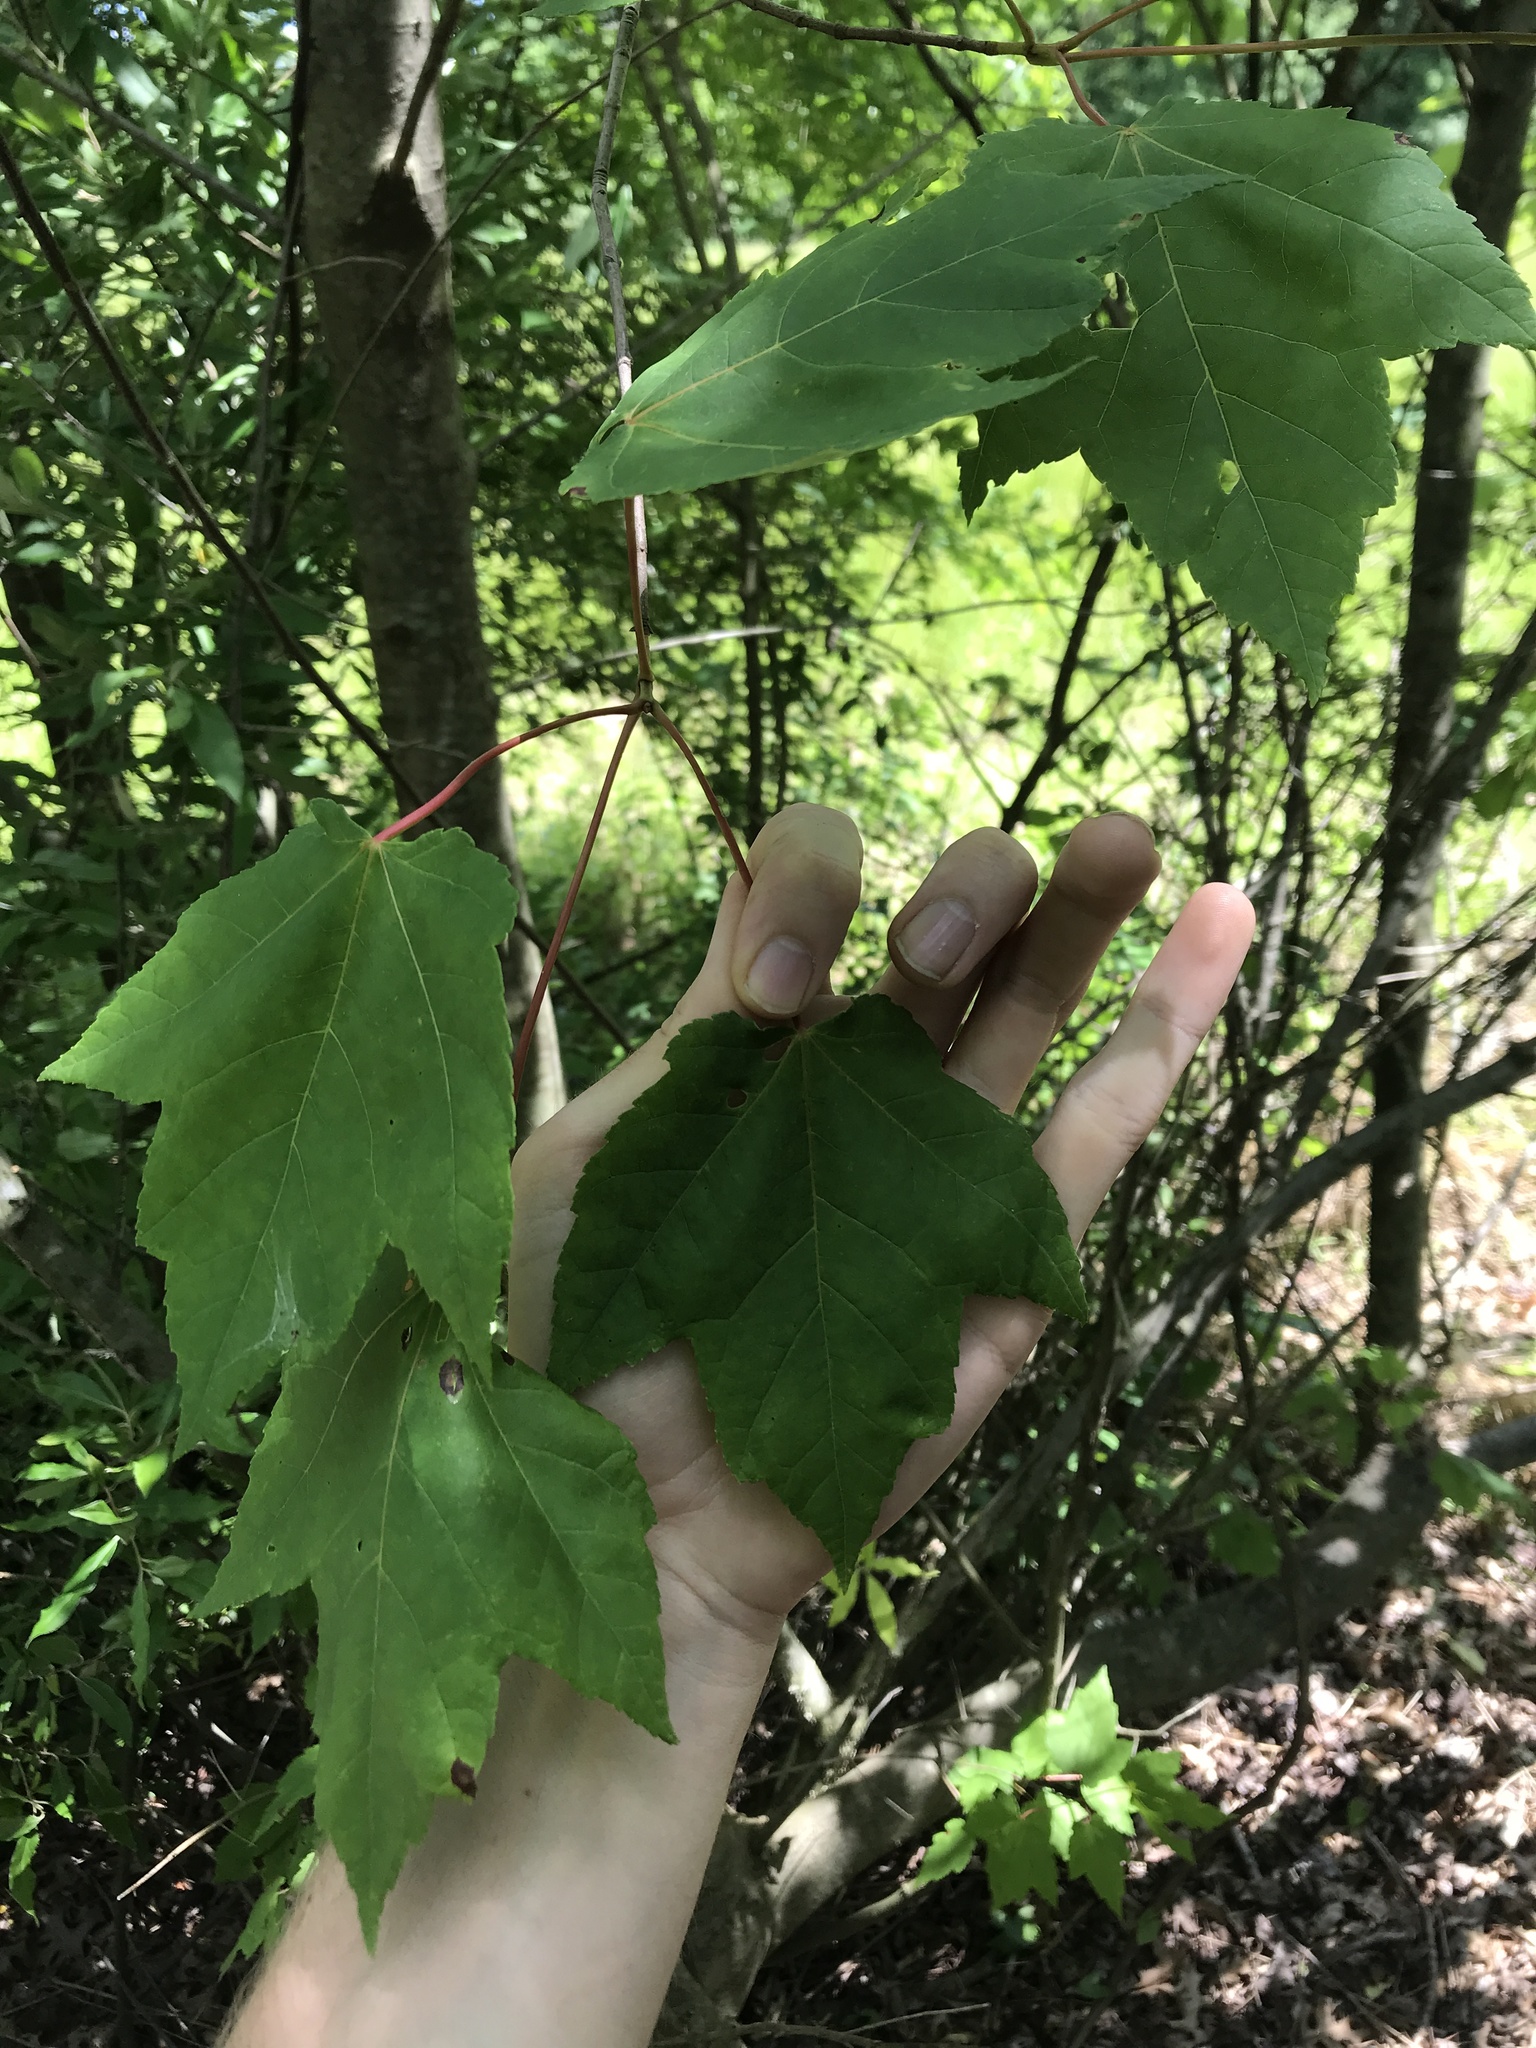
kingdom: Plantae
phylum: Tracheophyta
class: Magnoliopsida
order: Sapindales
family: Sapindaceae
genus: Acer
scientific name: Acer rubrum
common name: Red maple
